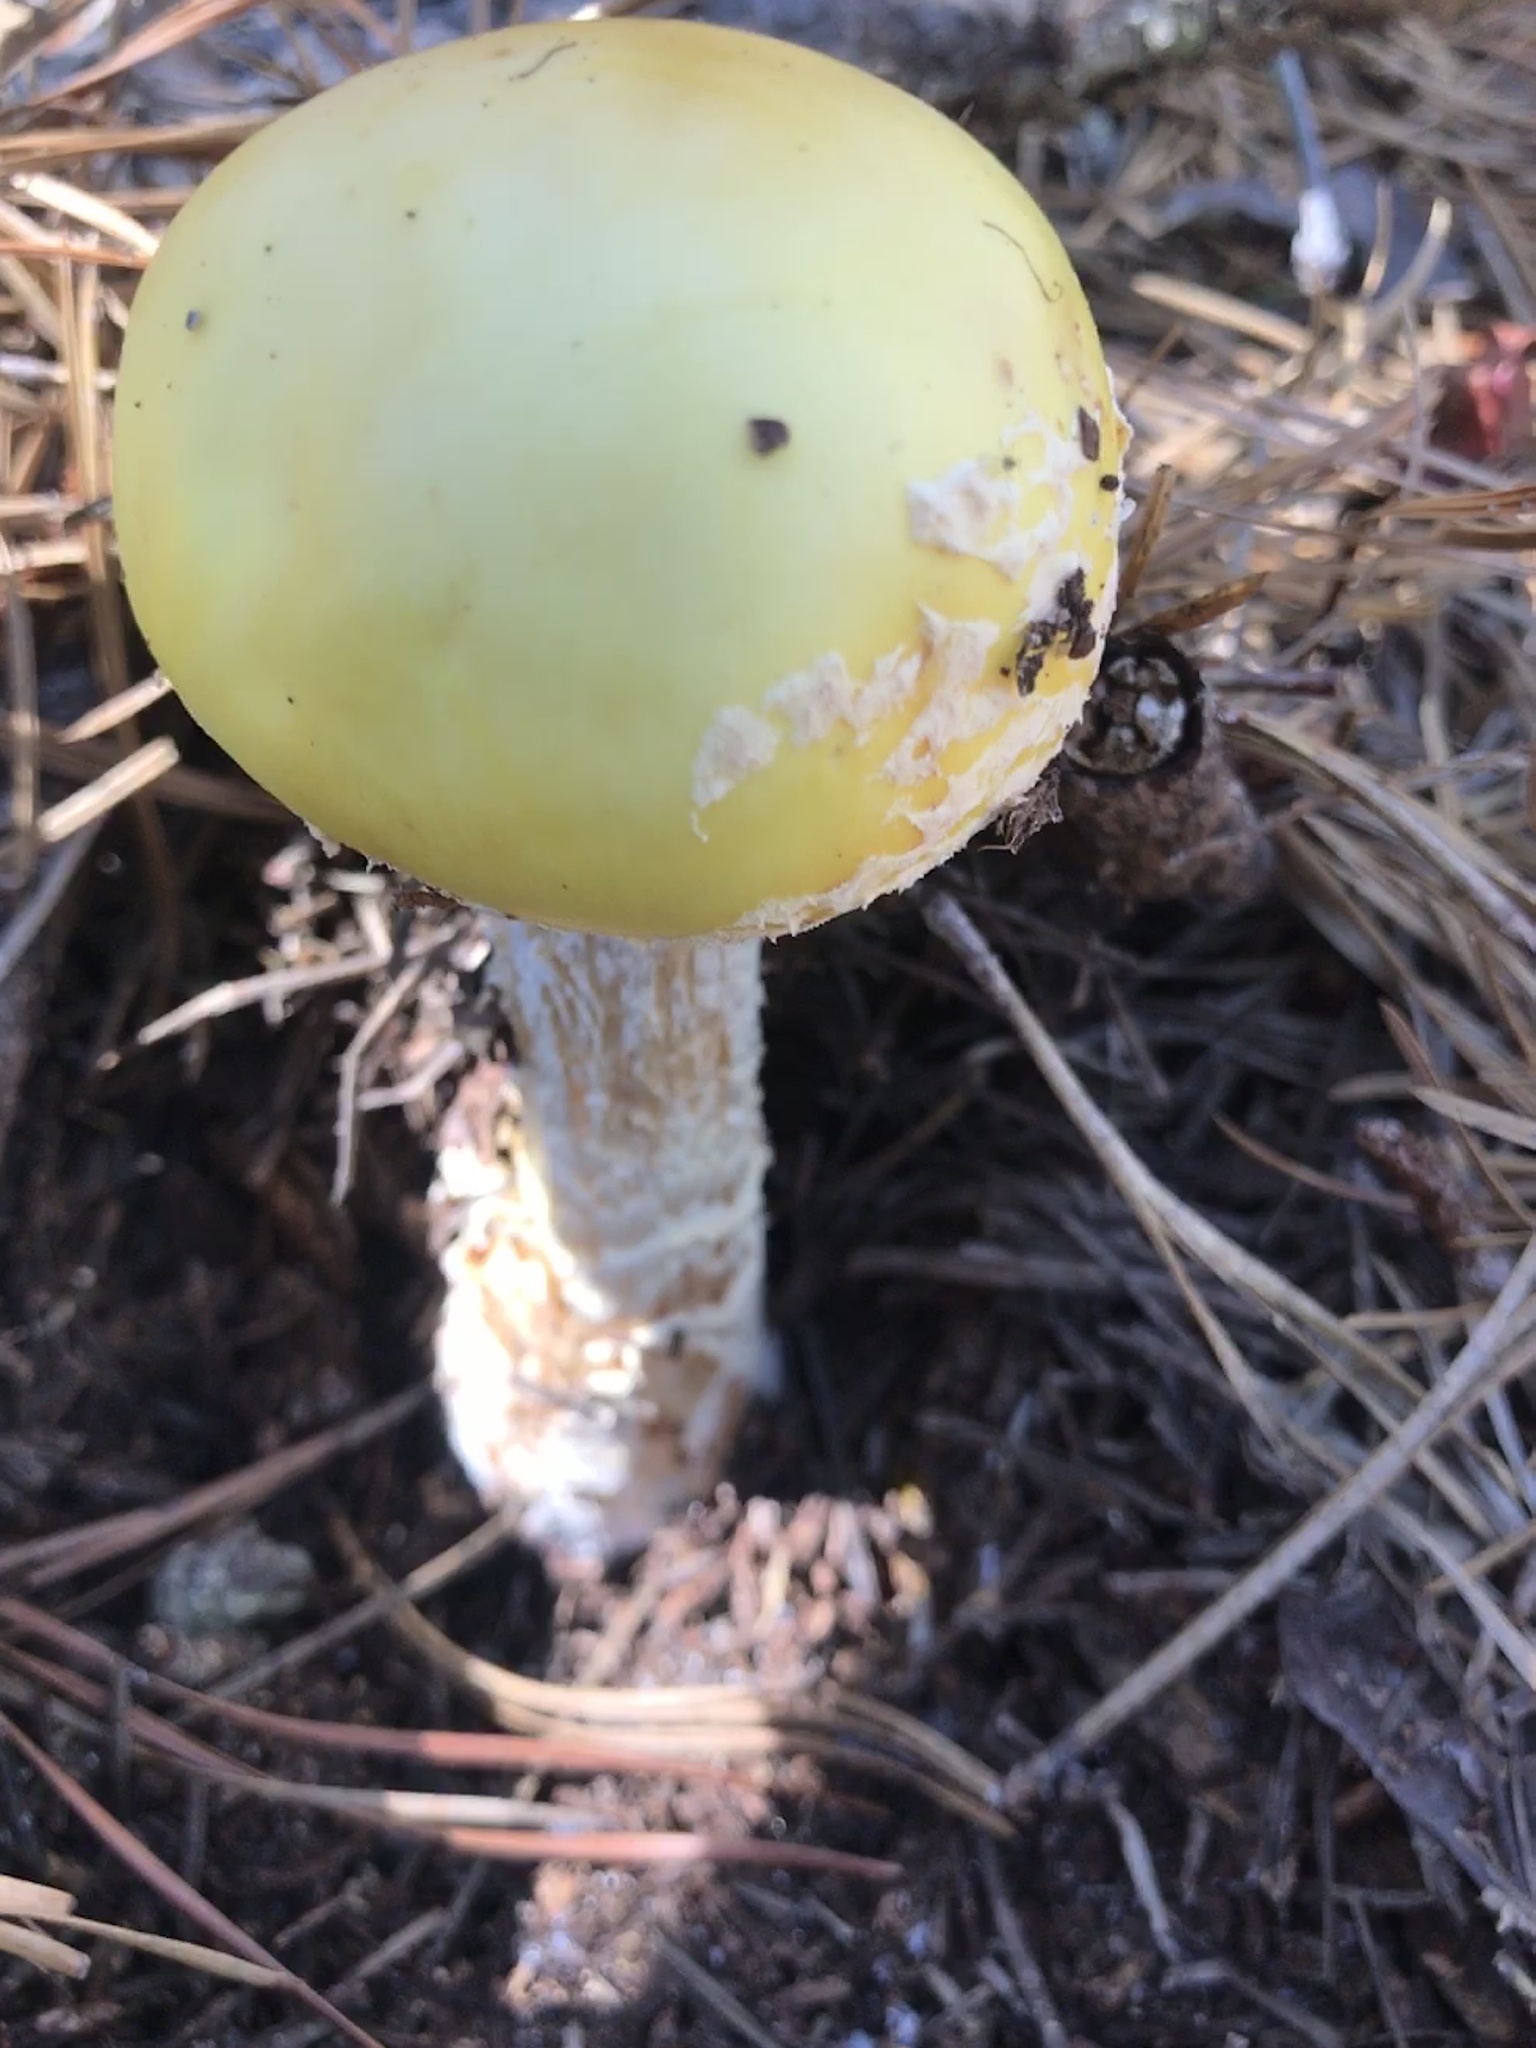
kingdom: Fungi
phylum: Basidiomycota
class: Agaricomycetes
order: Agaricales
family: Amanitaceae
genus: Amanita
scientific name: Amanita muscaria
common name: Fly agaric
